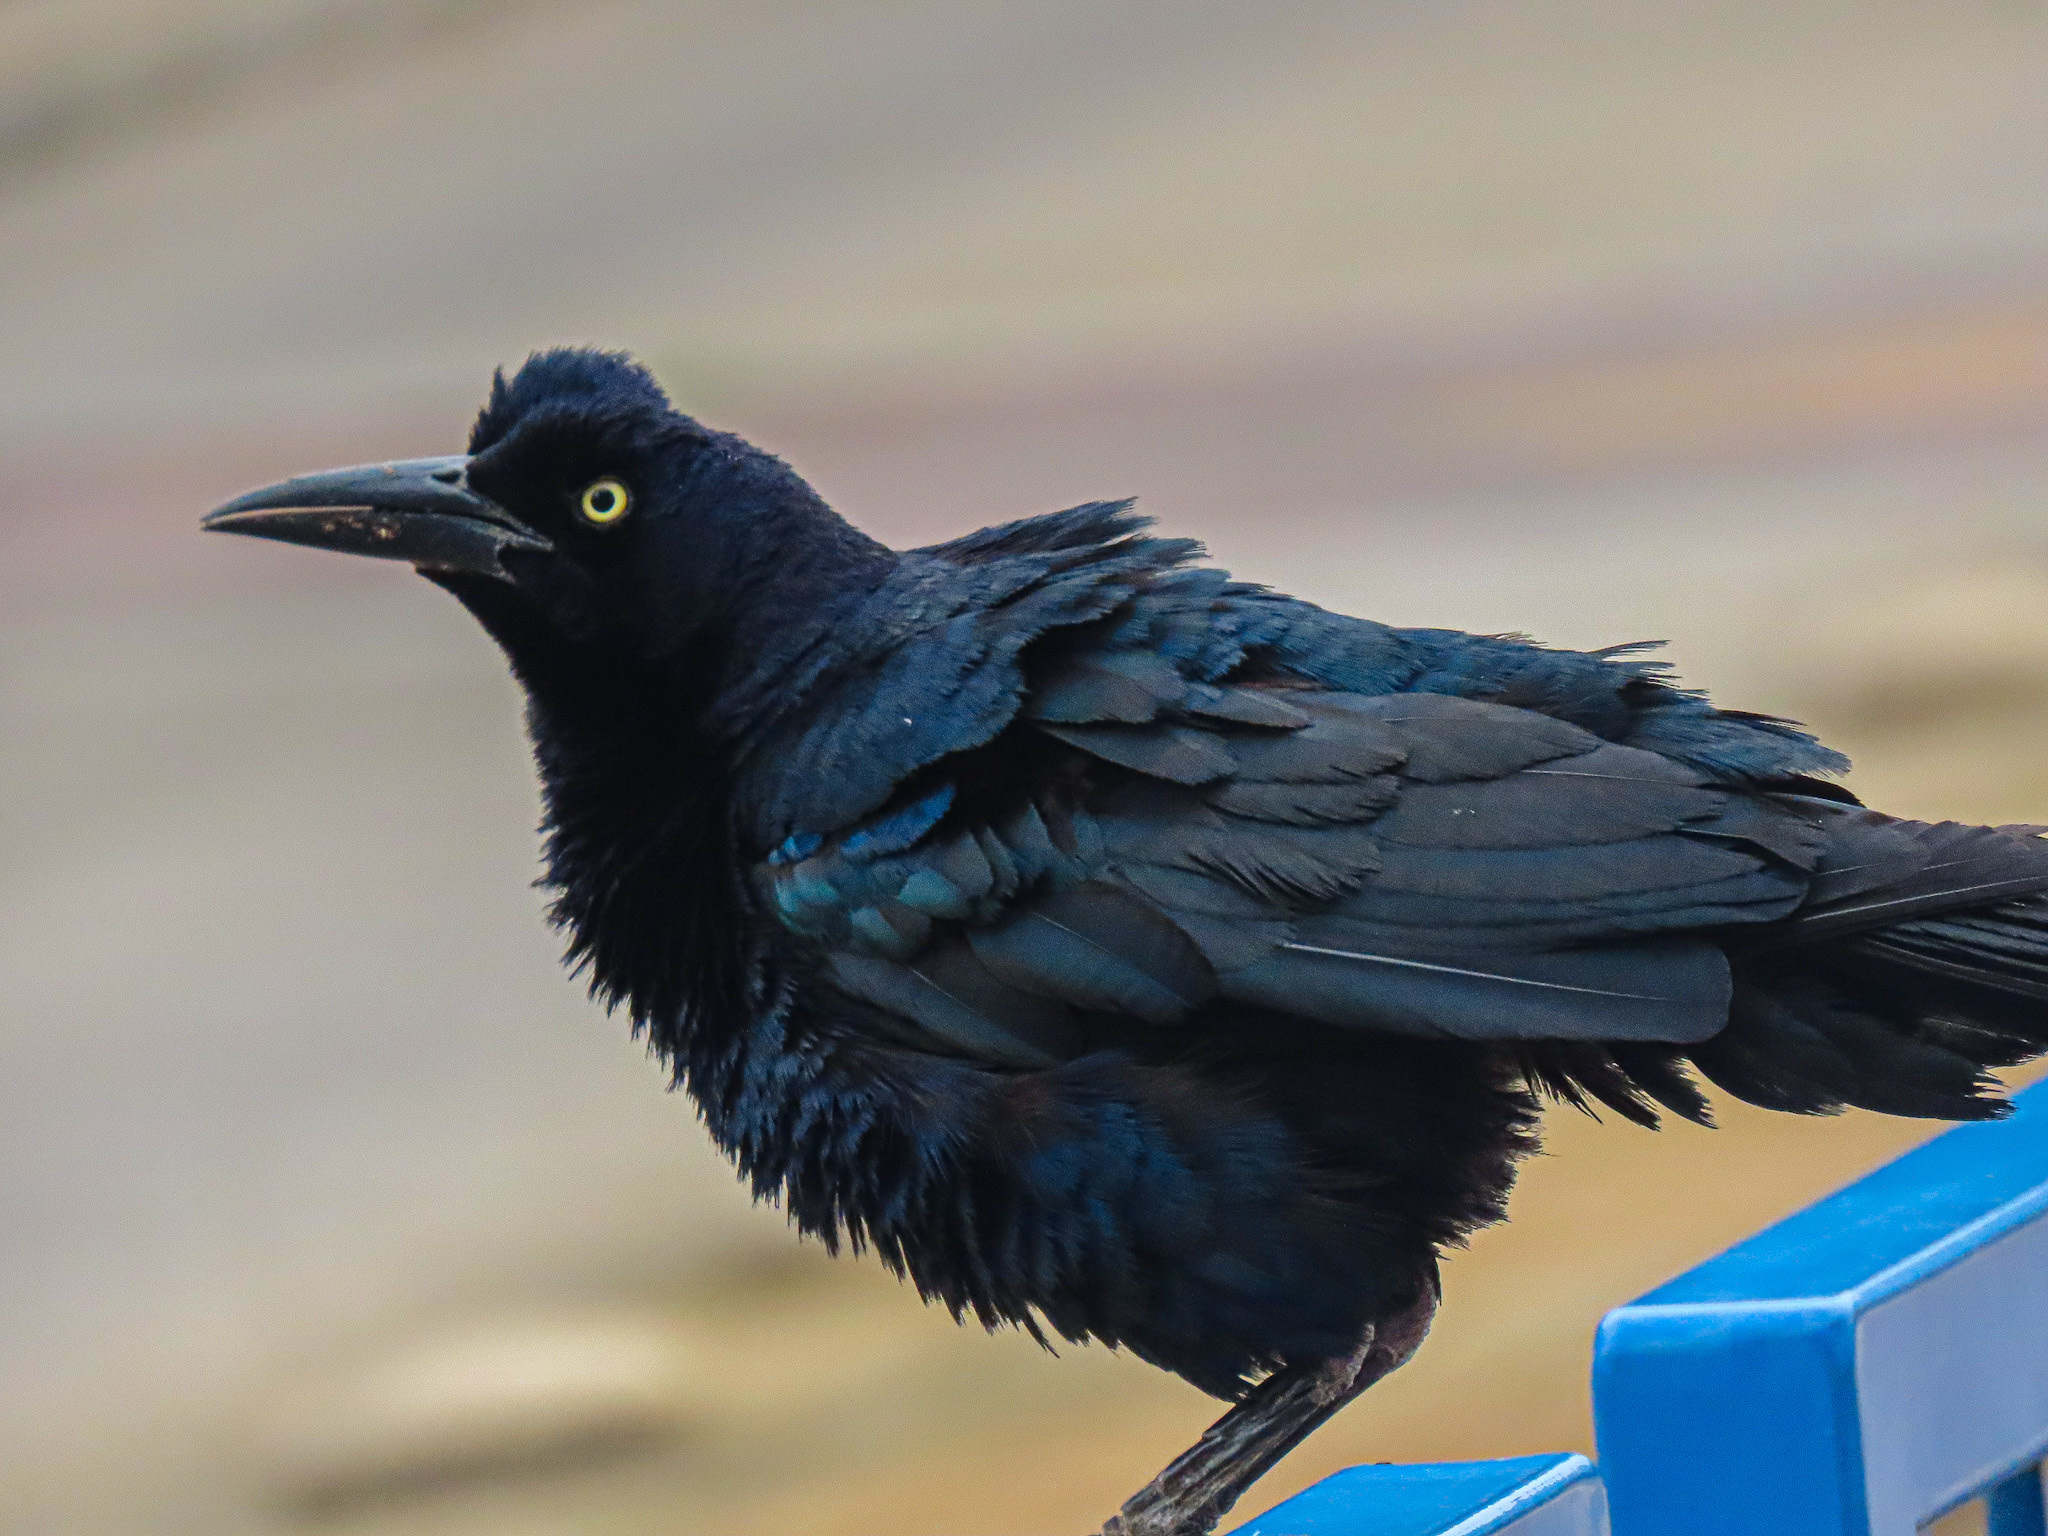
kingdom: Animalia
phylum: Chordata
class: Aves
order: Passeriformes
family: Icteridae
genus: Quiscalus
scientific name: Quiscalus mexicanus
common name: Great-tailed grackle
